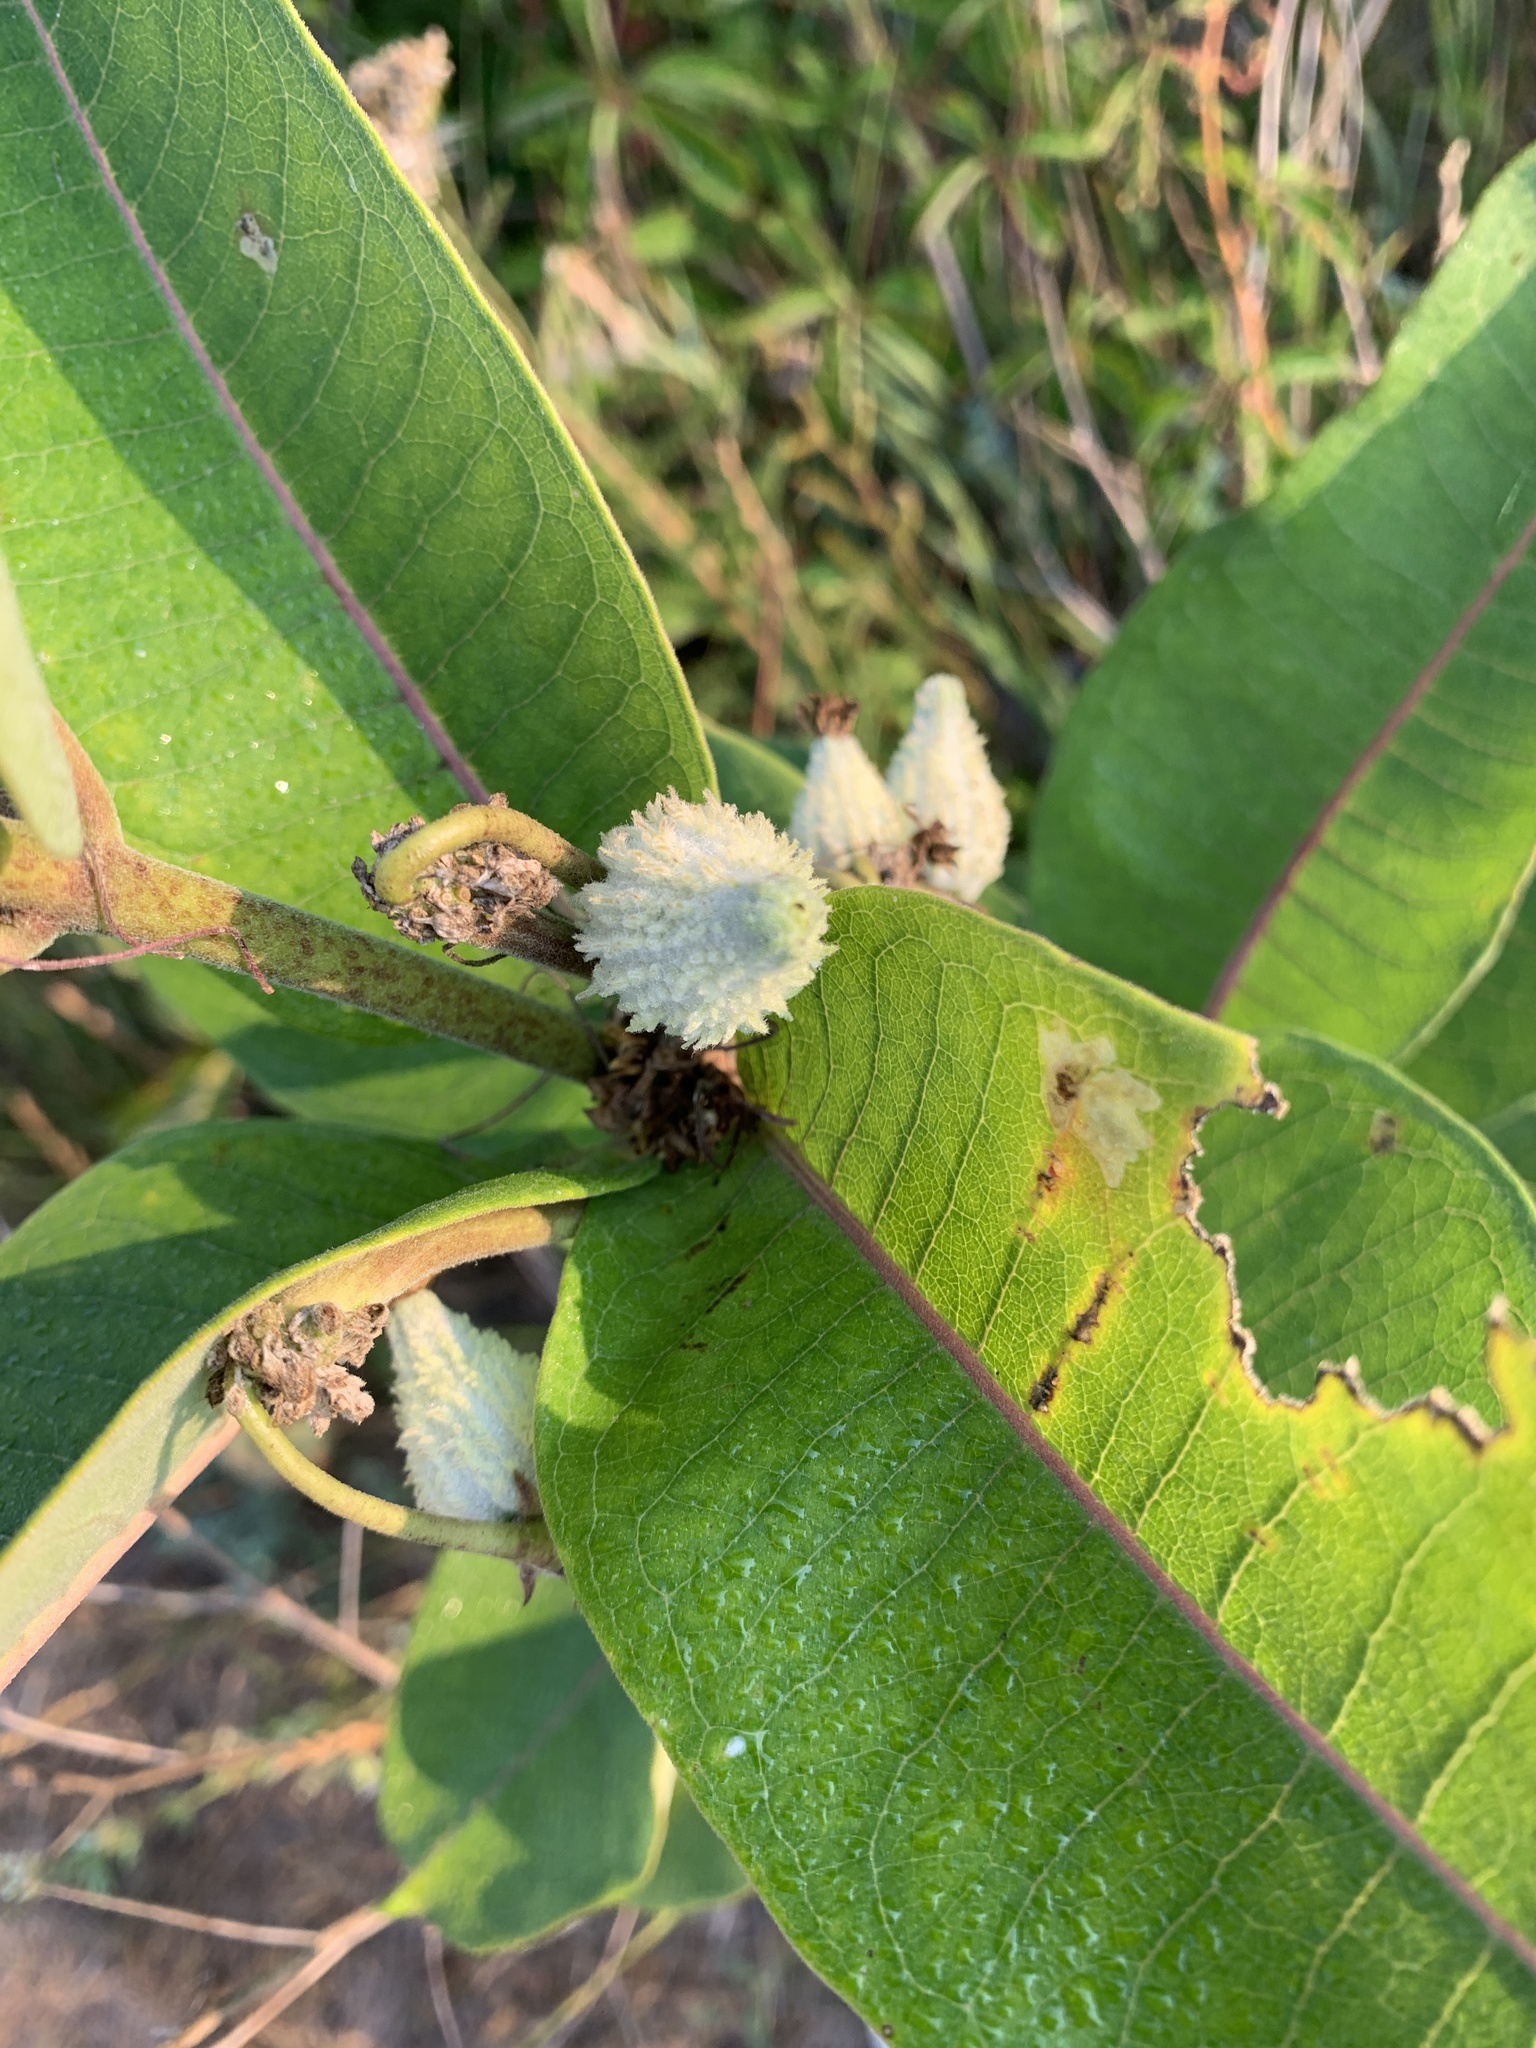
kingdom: Plantae
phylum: Tracheophyta
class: Magnoliopsida
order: Gentianales
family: Apocynaceae
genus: Asclepias
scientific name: Asclepias syriaca
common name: Common milkweed
